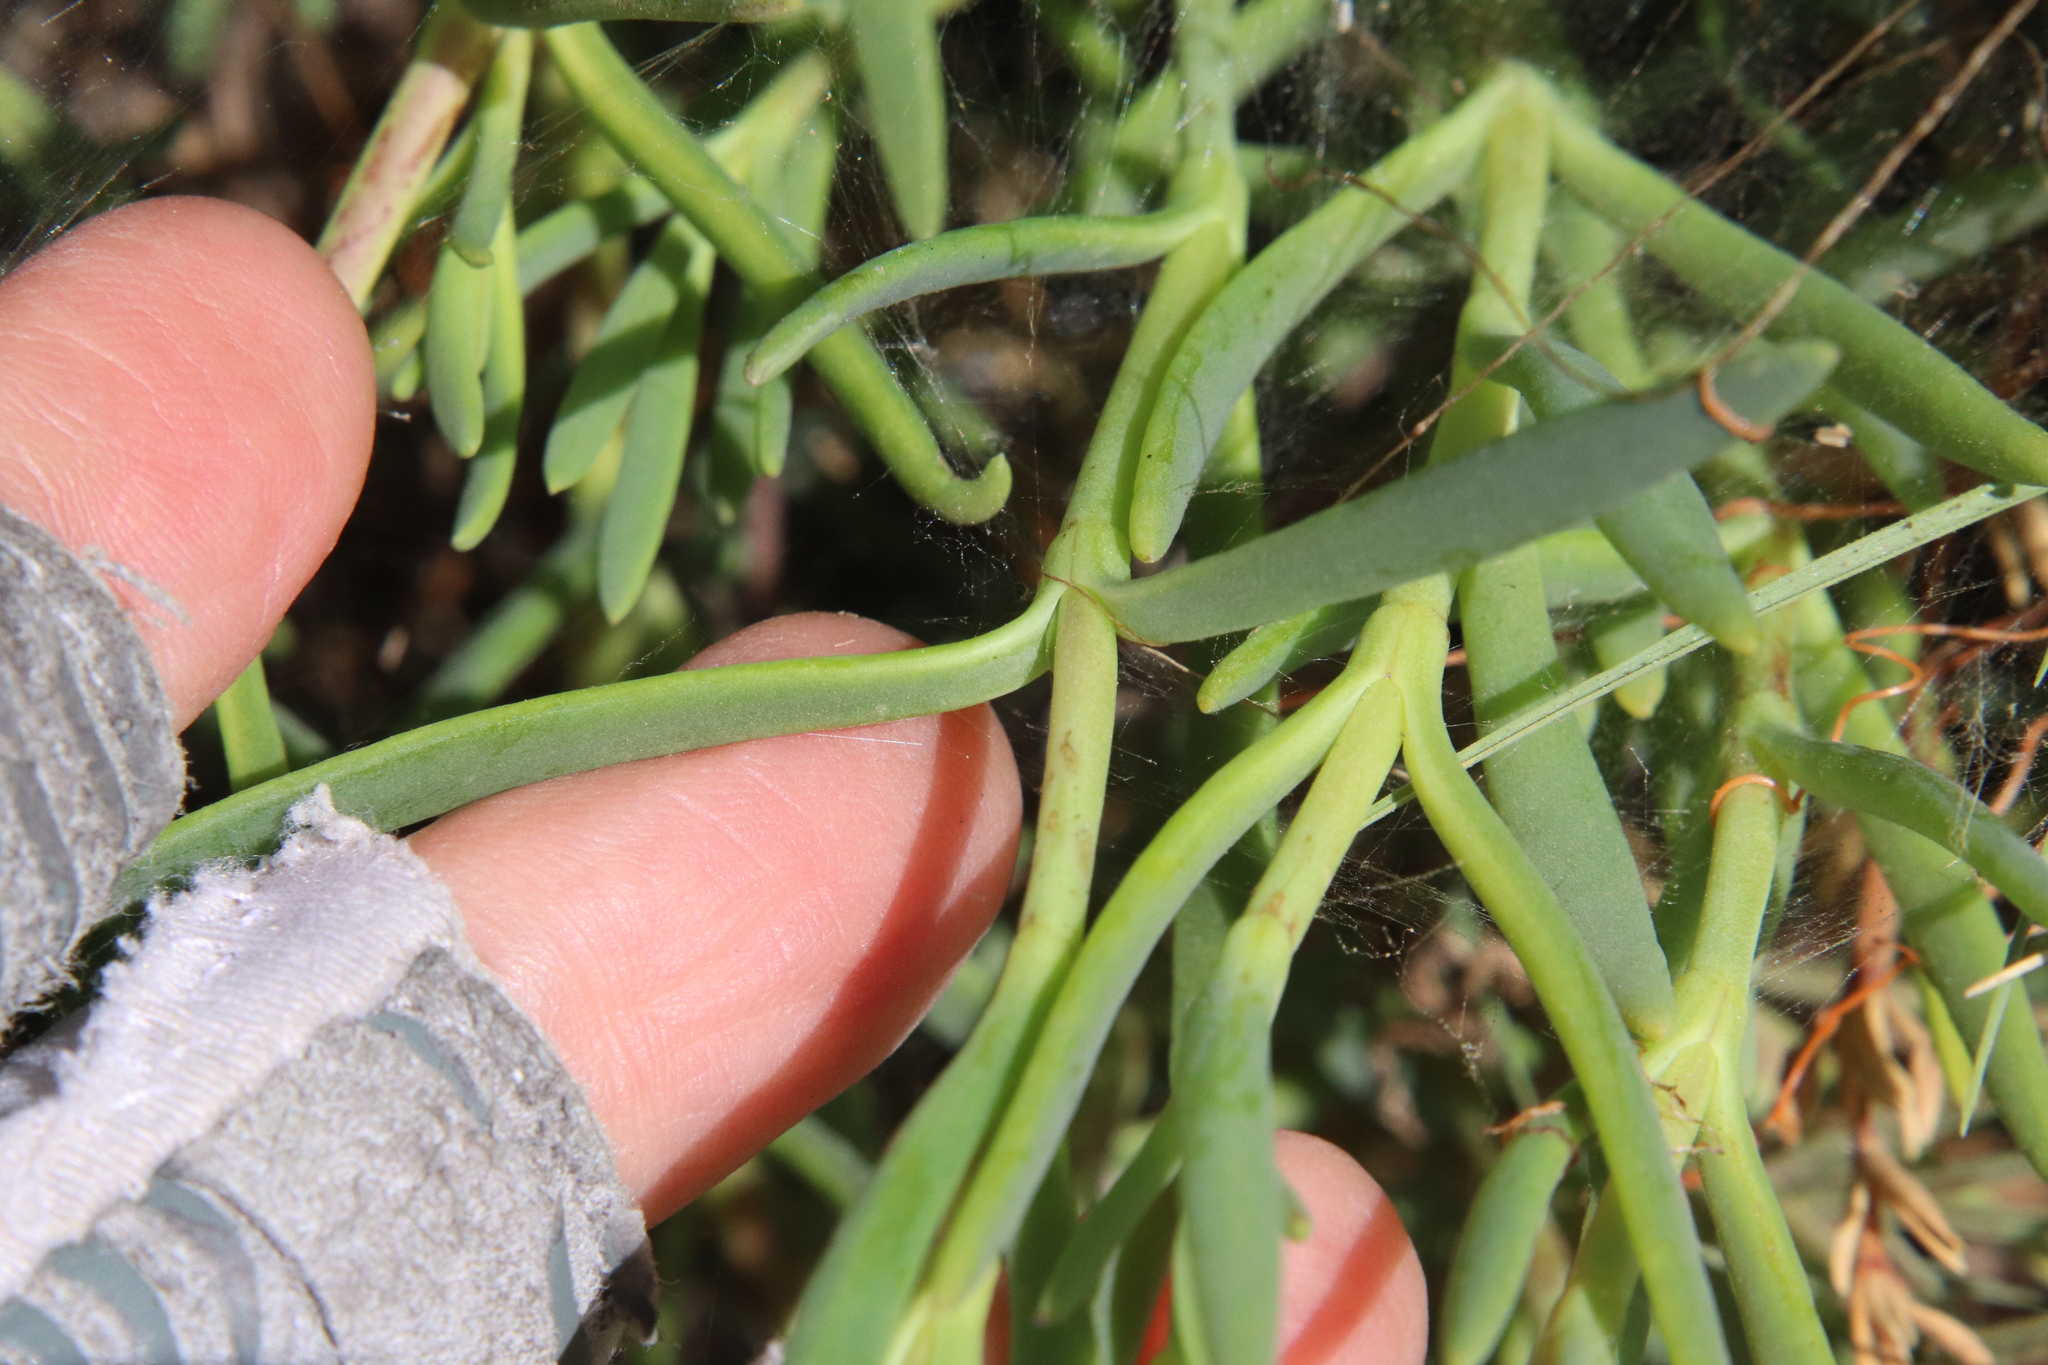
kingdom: Plantae
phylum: Tracheophyta
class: Magnoliopsida
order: Asterales
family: Asteraceae
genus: Jaumea
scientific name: Jaumea carnosa
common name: Fleshy jaumea
